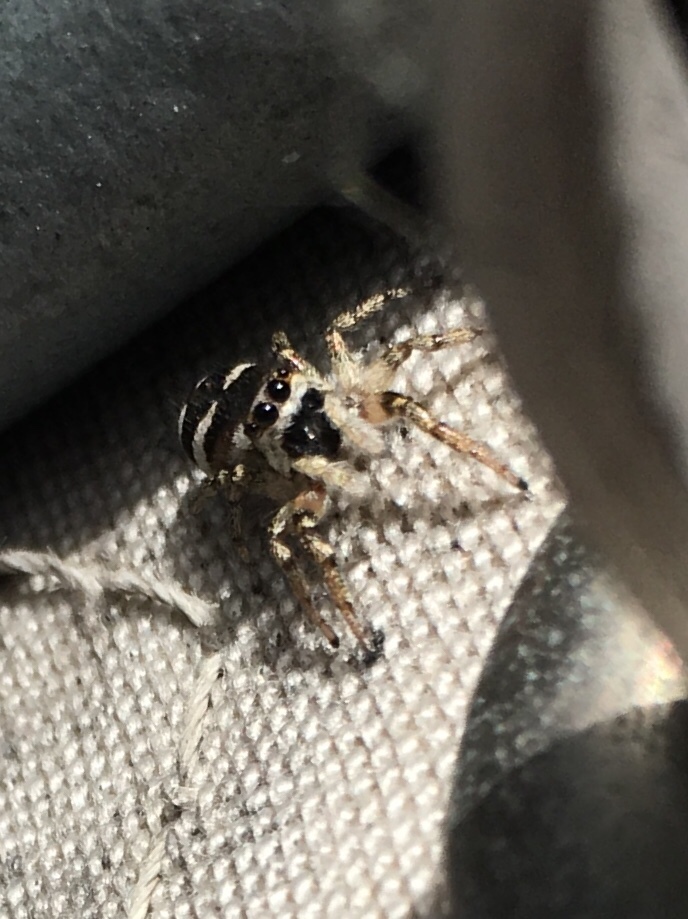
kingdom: Animalia
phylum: Arthropoda
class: Arachnida
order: Araneae
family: Salticidae
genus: Salticus
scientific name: Salticus scenicus
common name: Zebra jumper
